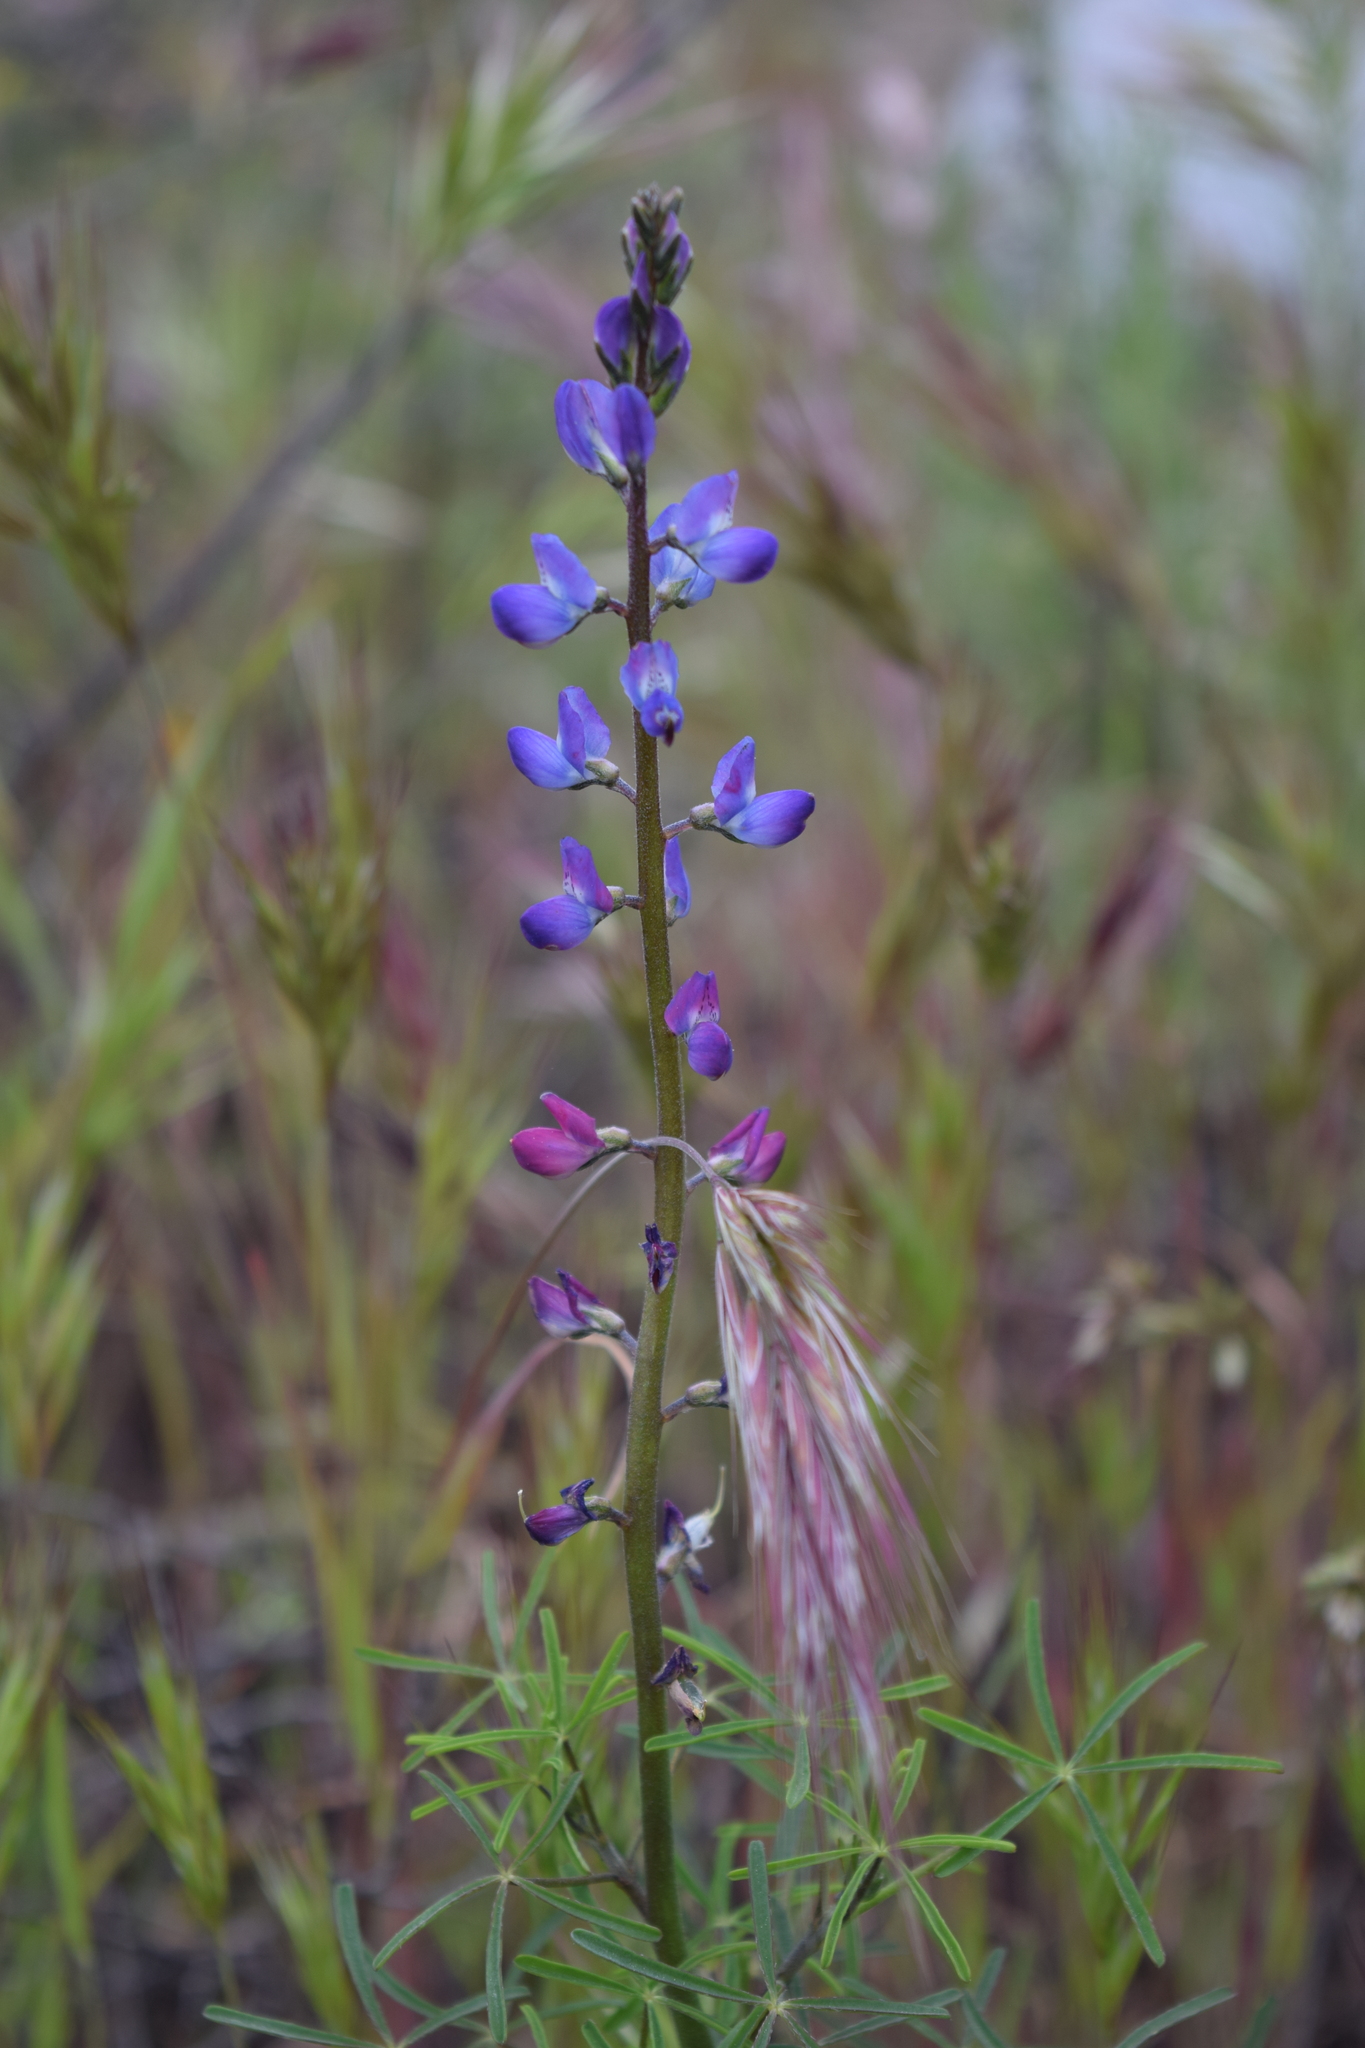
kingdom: Plantae
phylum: Tracheophyta
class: Magnoliopsida
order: Fabales
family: Fabaceae
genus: Lupinus
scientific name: Lupinus truncatus
